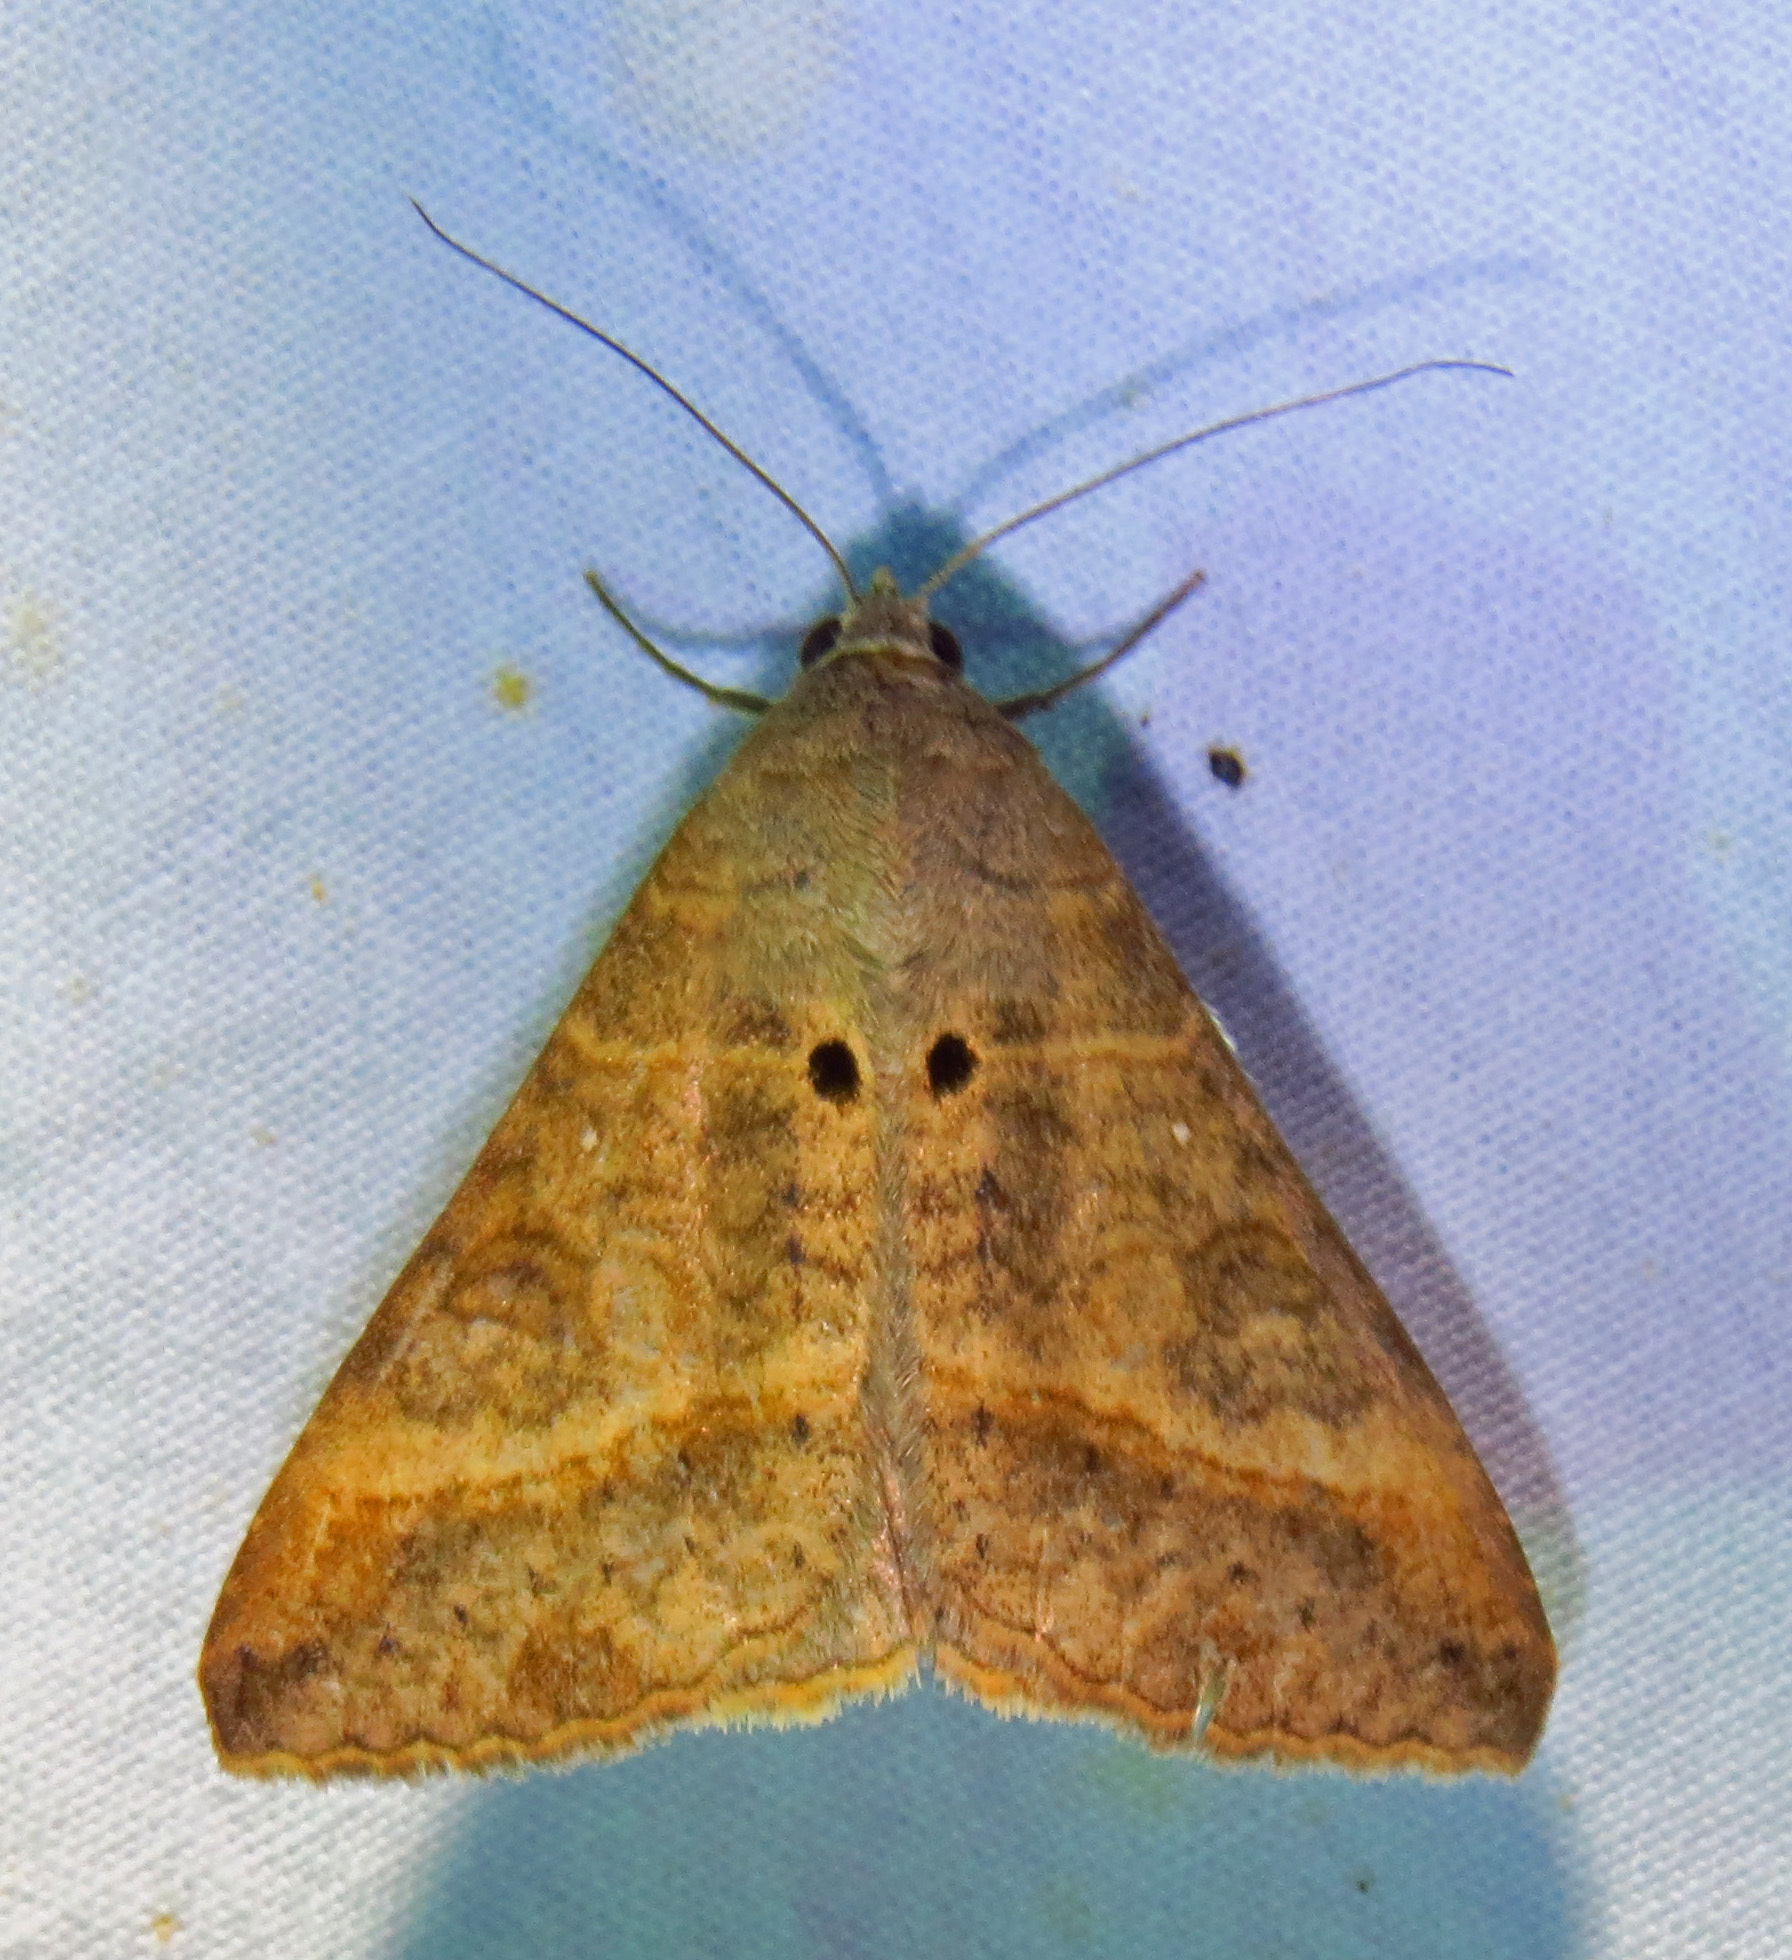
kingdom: Animalia
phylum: Arthropoda
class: Insecta
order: Lepidoptera
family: Erebidae
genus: Mocis
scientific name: Mocis latipes
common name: Striped grass looper
